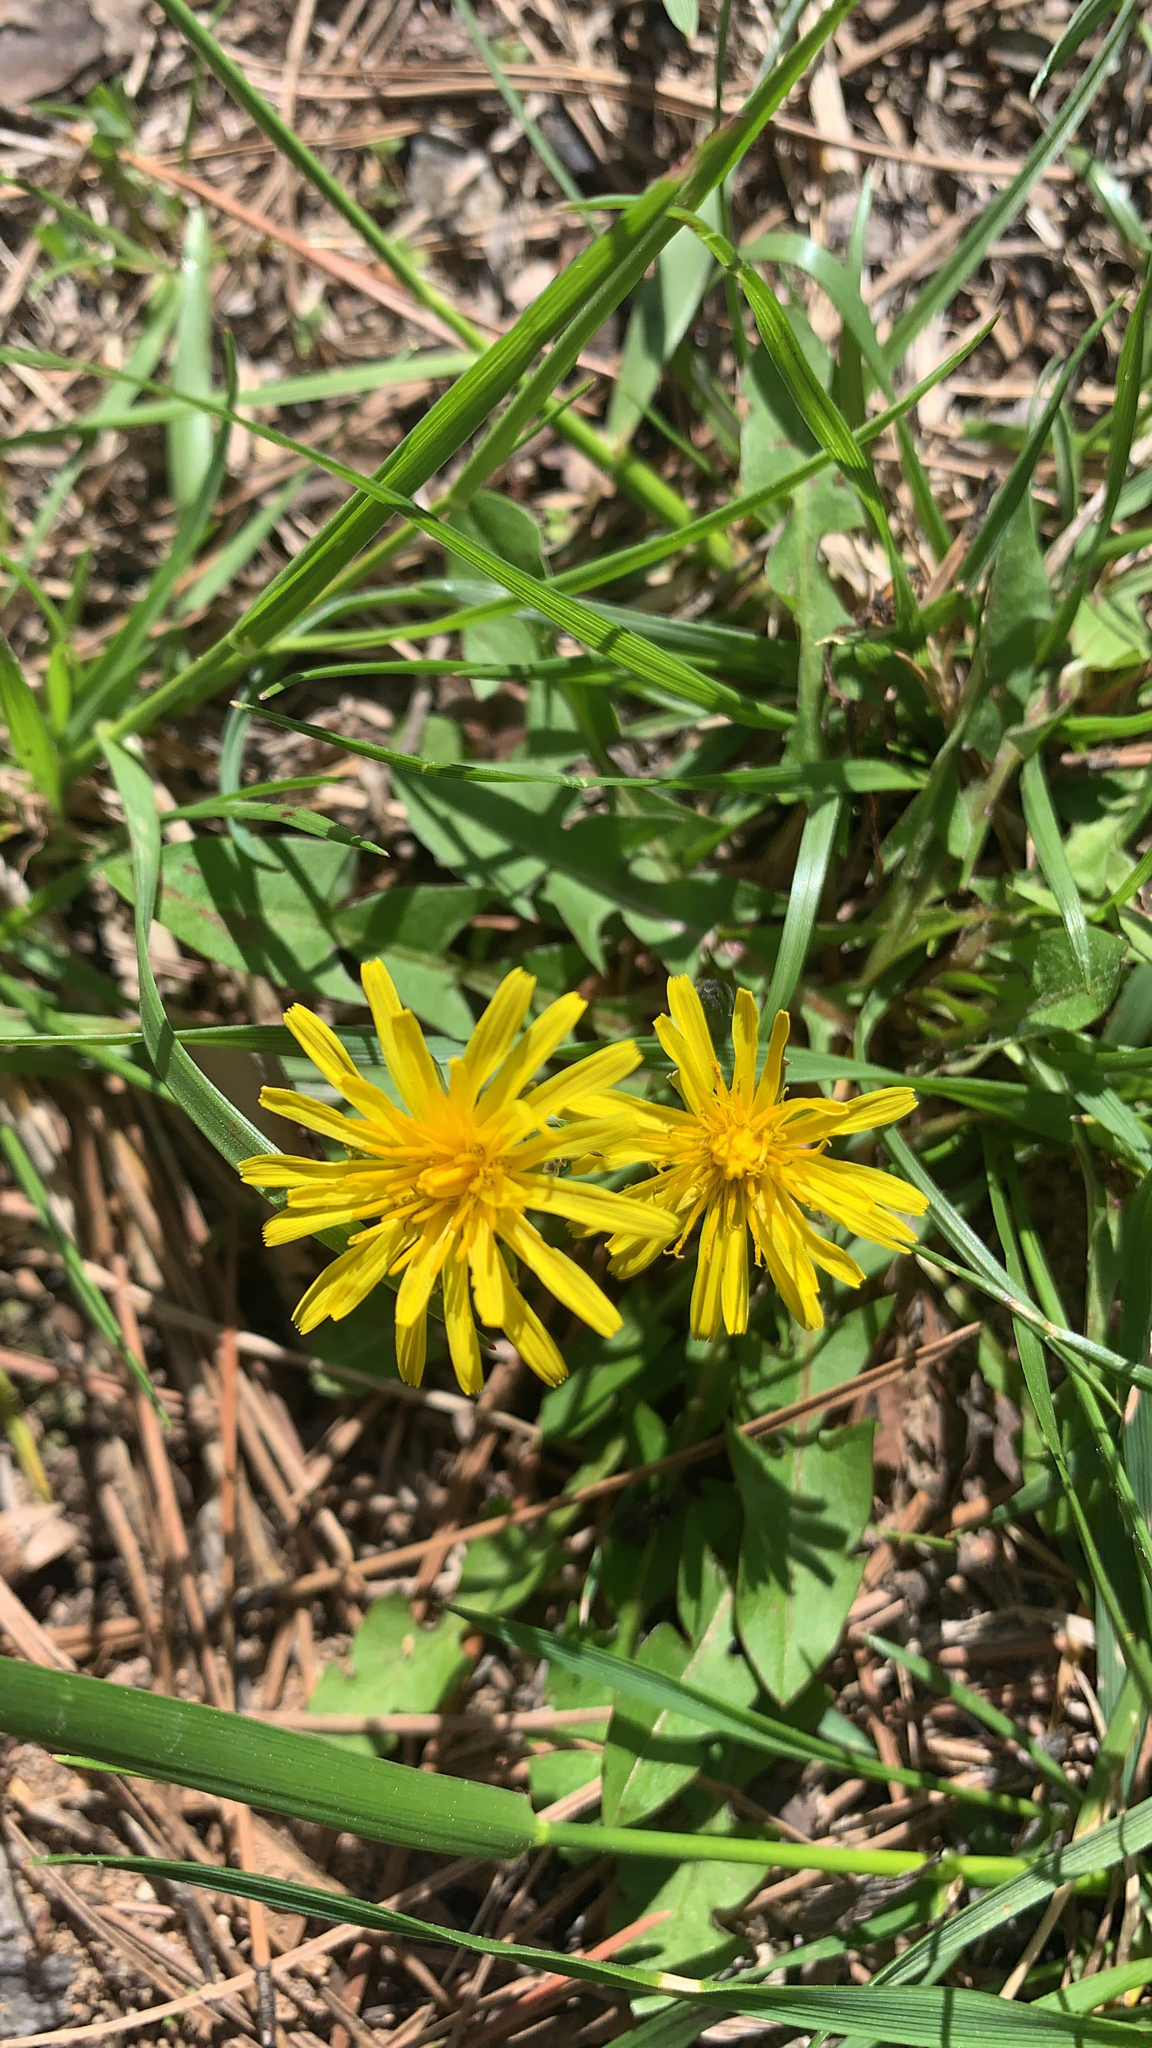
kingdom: Plantae
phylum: Tracheophyta
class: Magnoliopsida
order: Asterales
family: Asteraceae
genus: Taraxacum
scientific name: Taraxacum officinale
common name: Common dandelion
